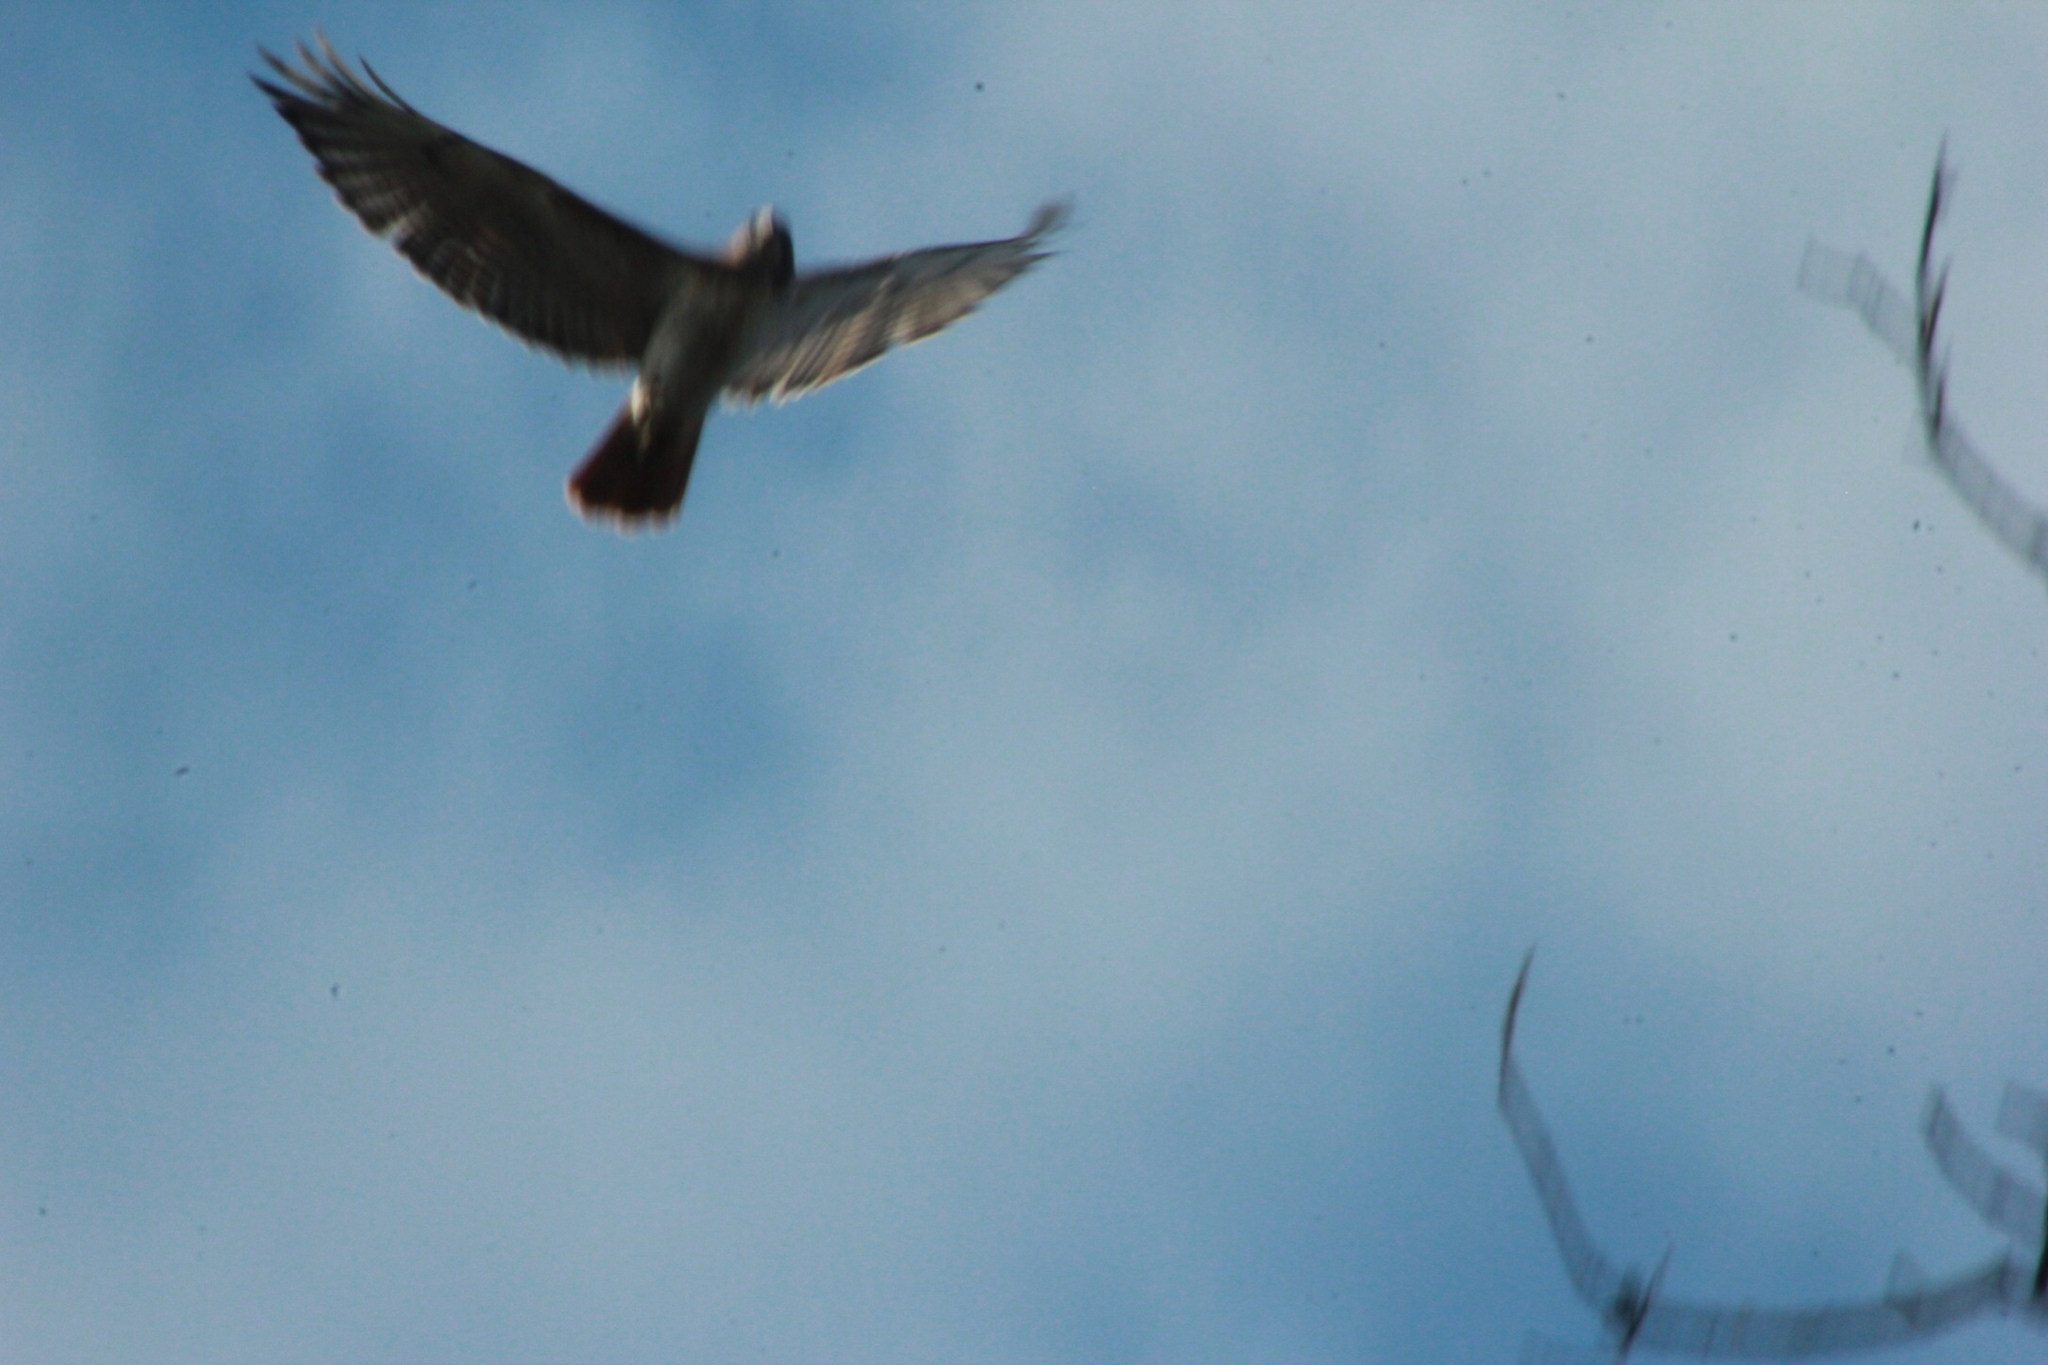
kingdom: Animalia
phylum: Chordata
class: Aves
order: Accipitriformes
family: Accipitridae
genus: Buteo
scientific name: Buteo jamaicensis
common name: Red-tailed hawk
